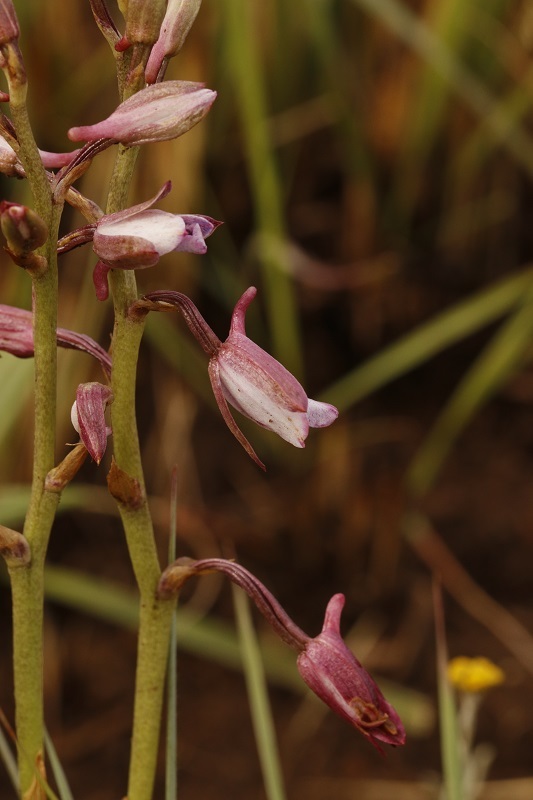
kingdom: Plantae
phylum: Tracheophyta
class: Liliopsida
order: Asparagales
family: Orchidaceae
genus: Eulophia
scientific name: Eulophia hians
